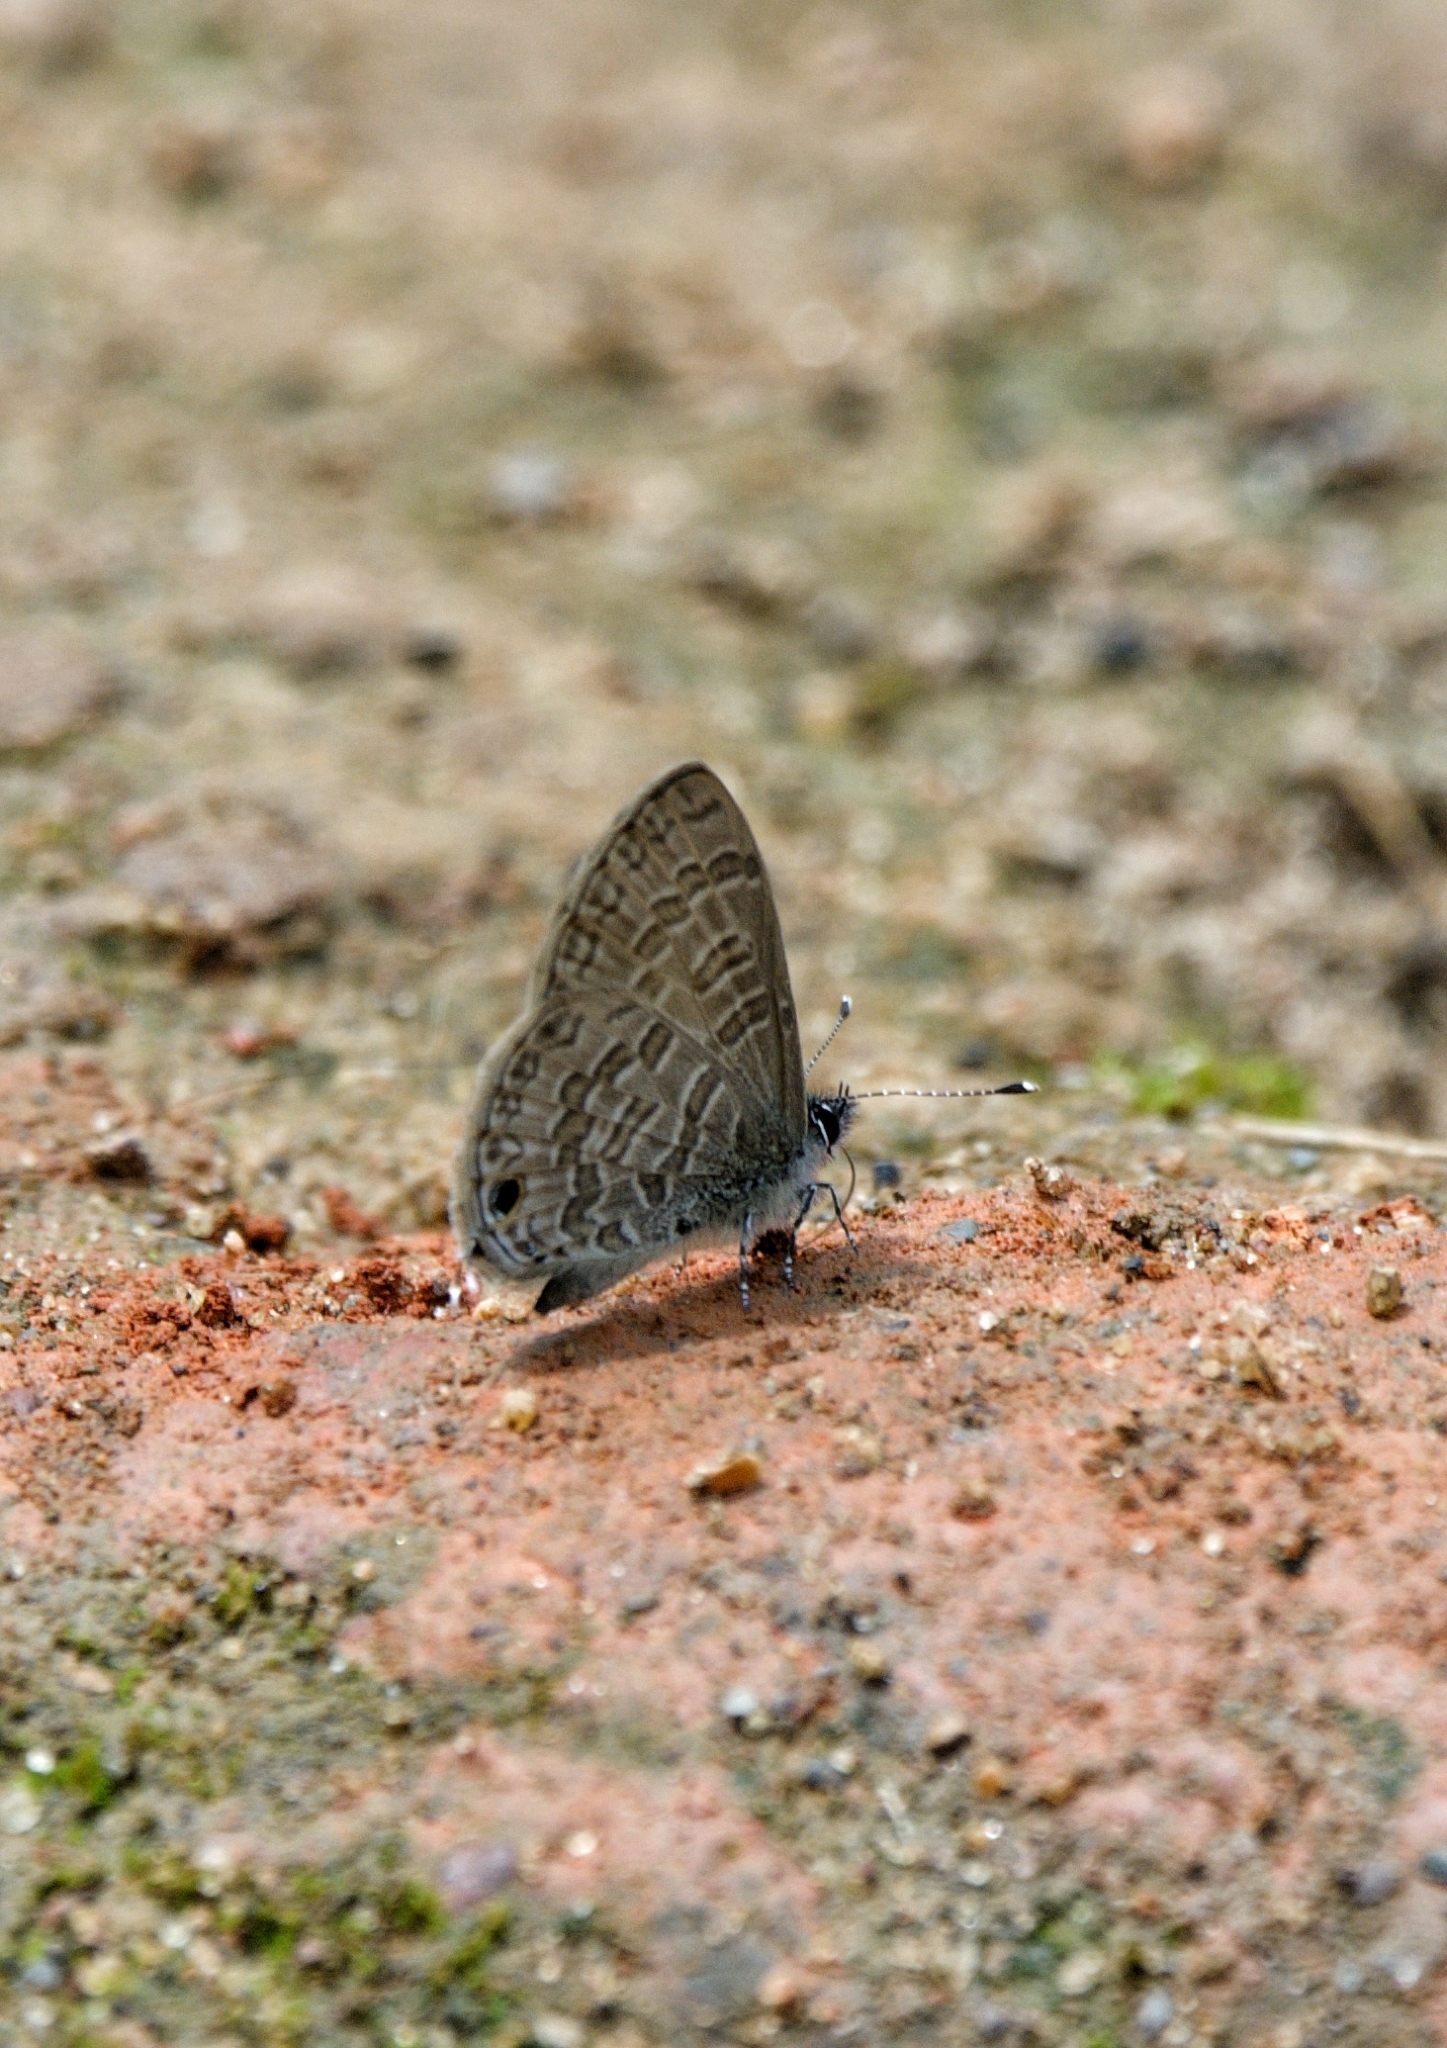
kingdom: Animalia
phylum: Arthropoda
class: Insecta
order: Lepidoptera
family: Lycaenidae
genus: Prosotas
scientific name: Prosotas nora
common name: Common line blue
